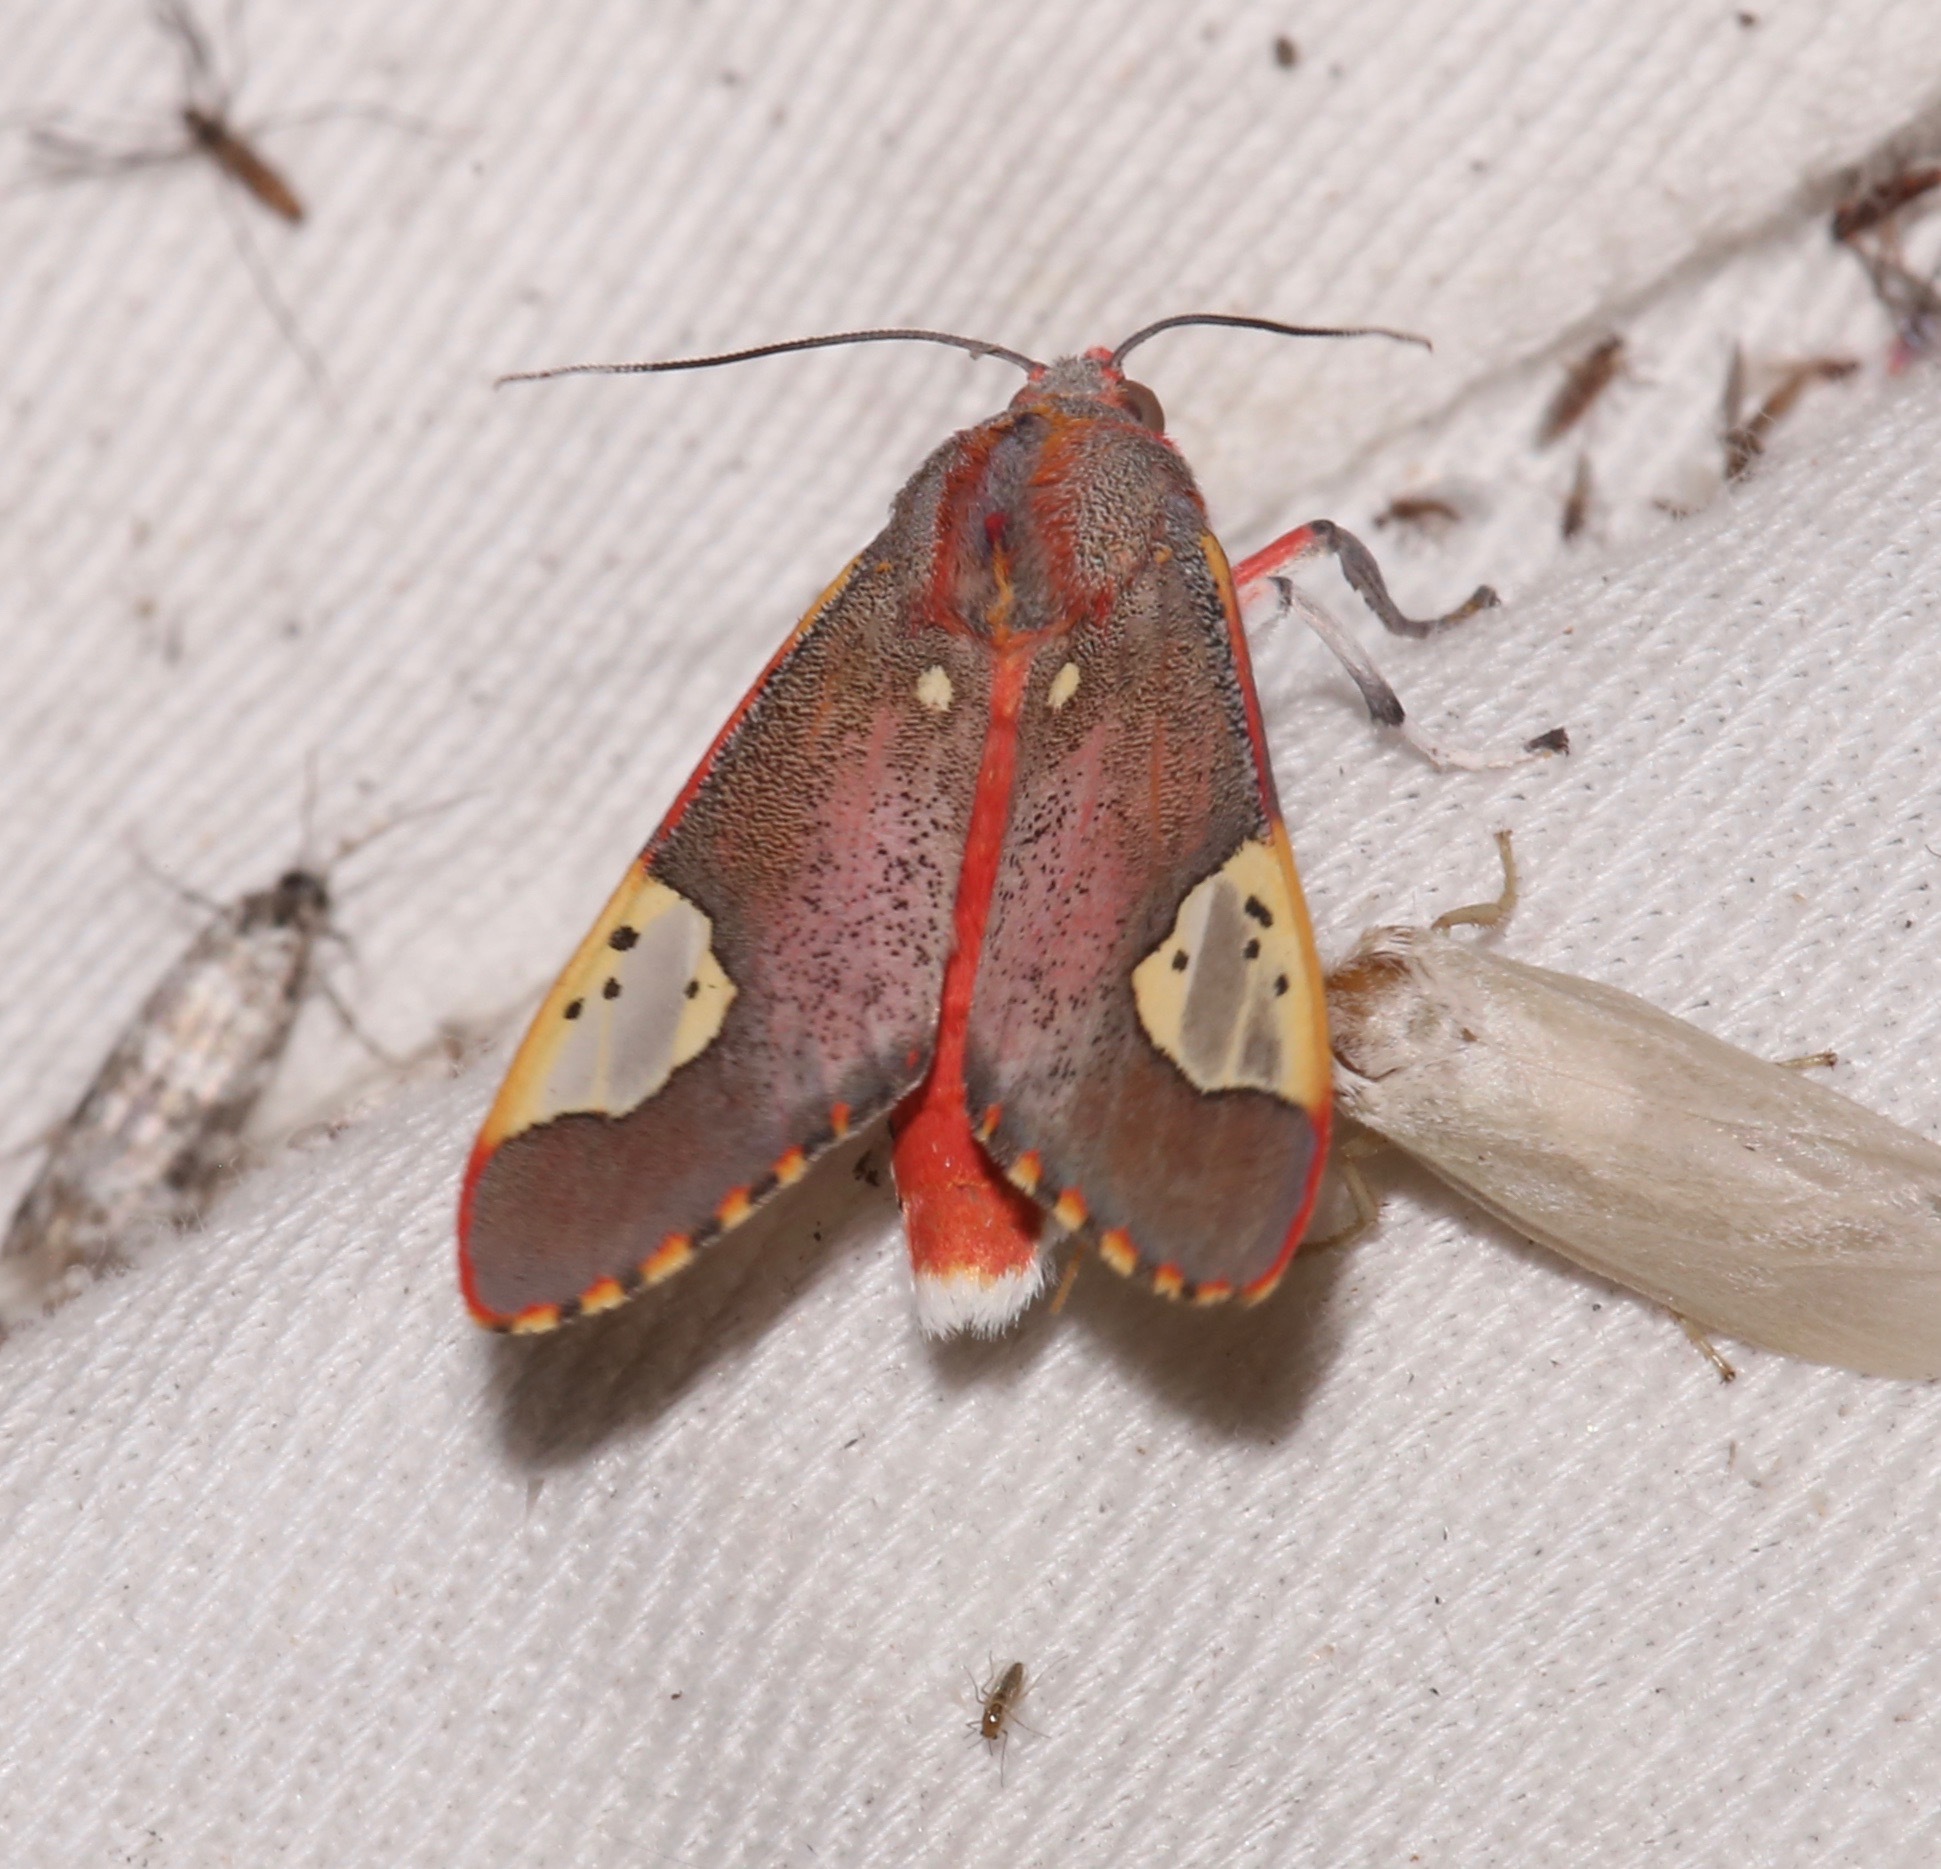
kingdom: Animalia
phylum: Arthropoda
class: Insecta
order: Lepidoptera
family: Erebidae
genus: Bertholdia
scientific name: Bertholdia trigona
